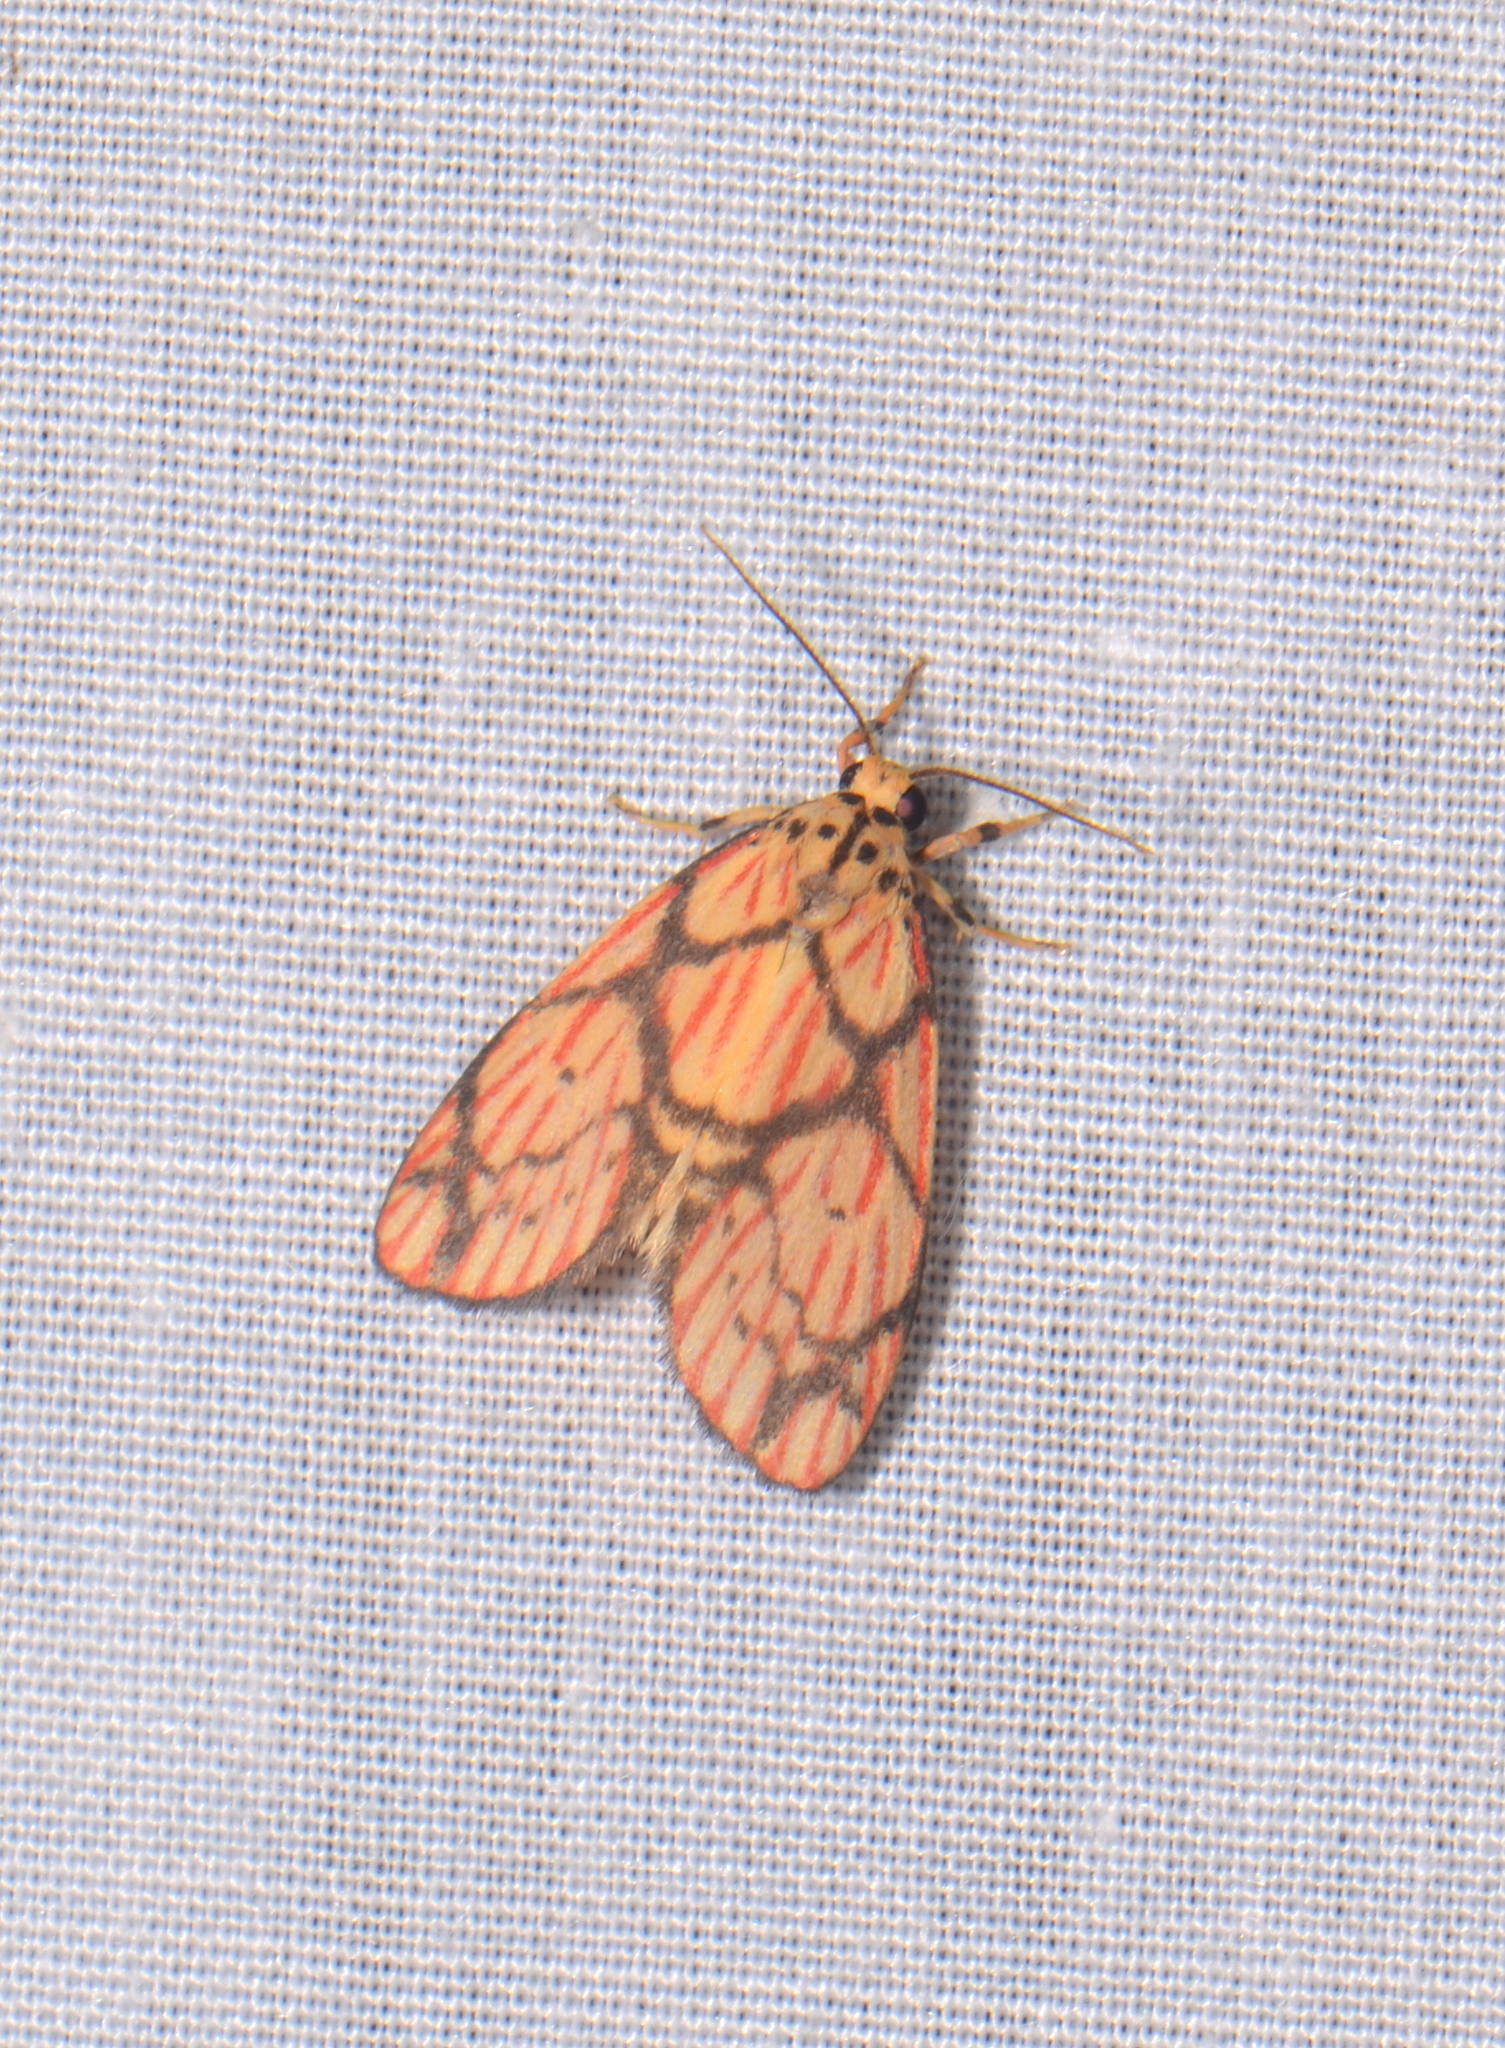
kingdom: Animalia
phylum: Arthropoda
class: Insecta
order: Lepidoptera
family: Erebidae
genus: Barsilene
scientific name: Barsilene pallinflexa
